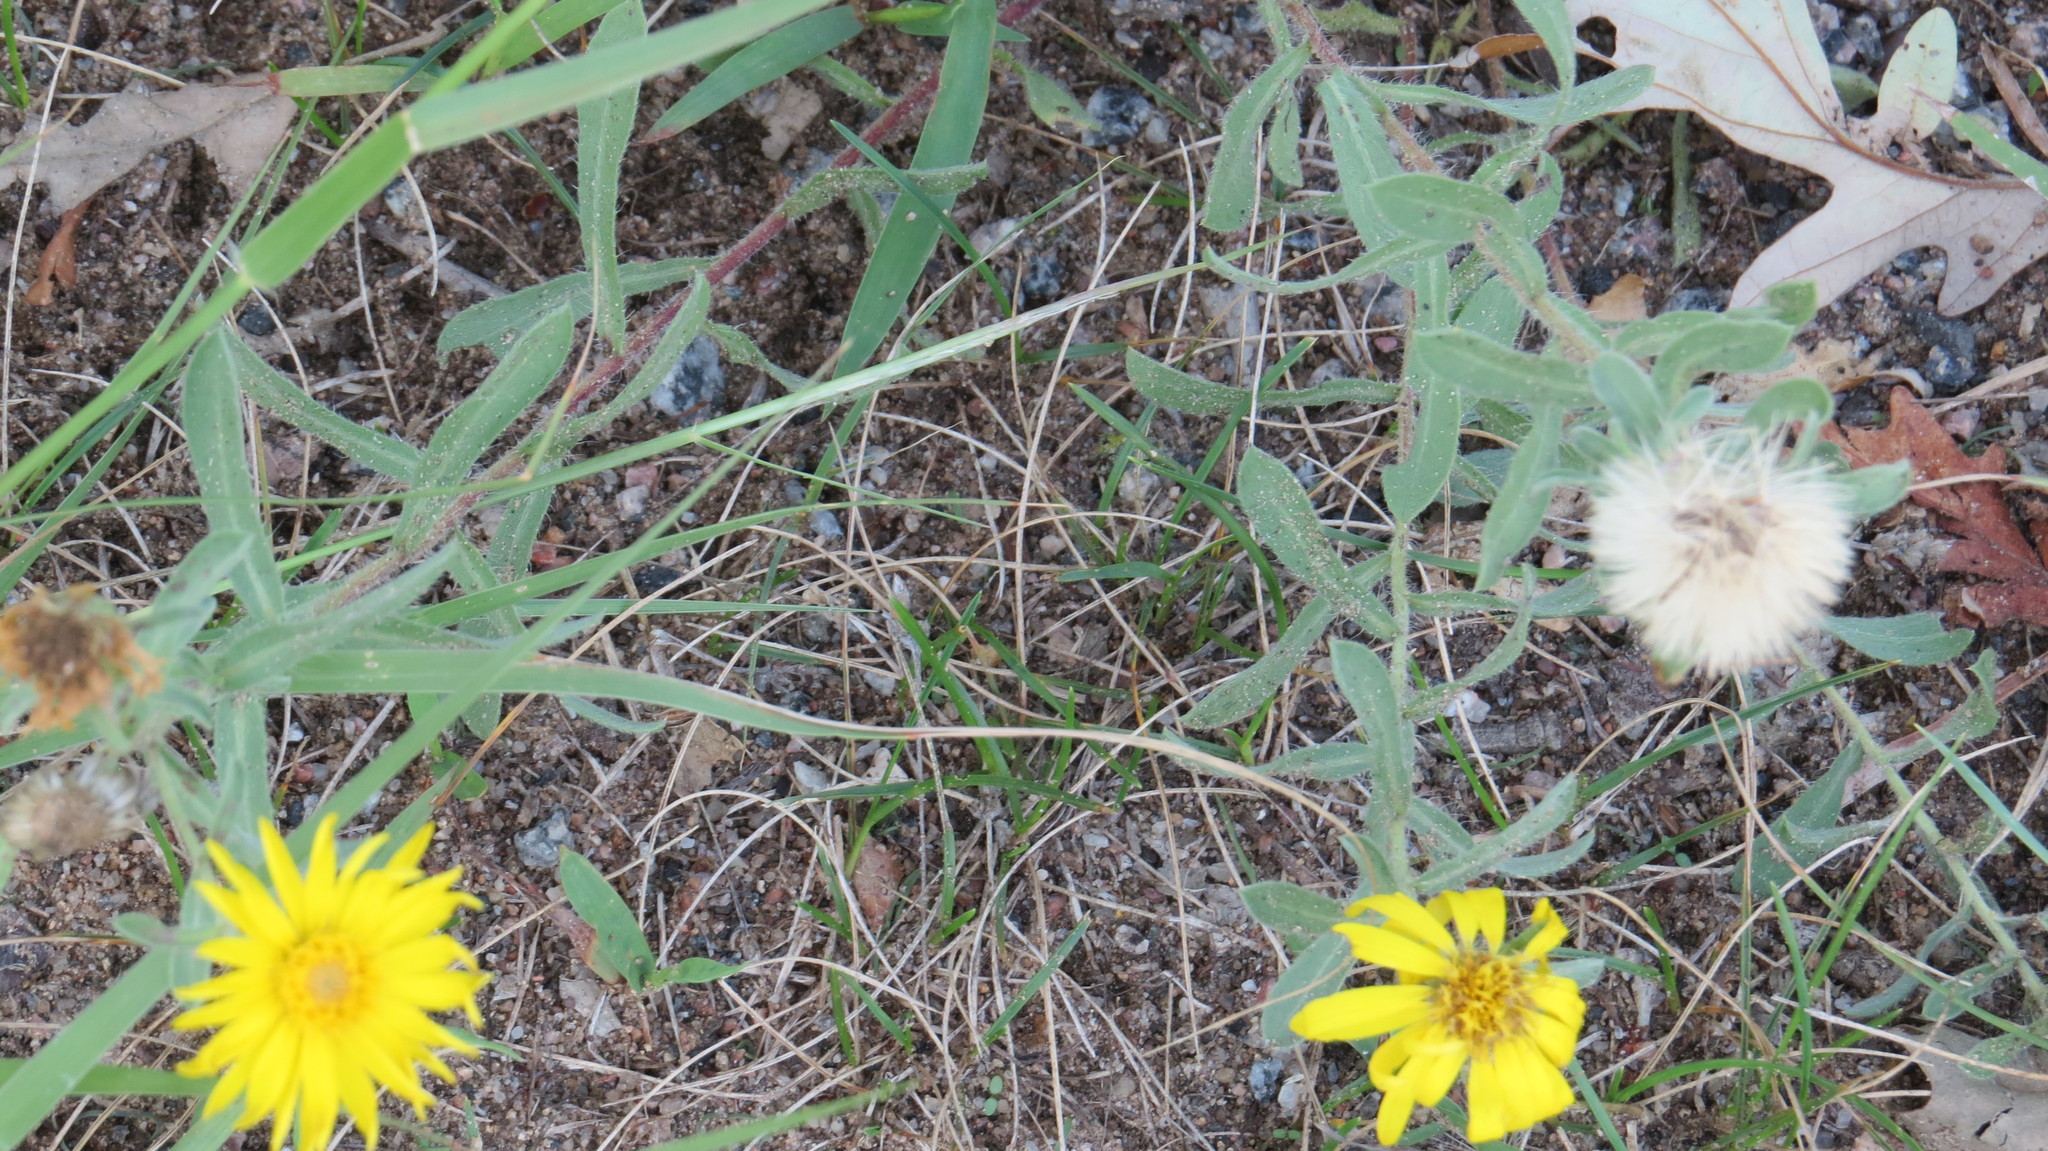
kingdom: Plantae
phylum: Tracheophyta
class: Magnoliopsida
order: Asterales
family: Asteraceae
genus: Heterotheca
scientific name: Heterotheca villosa
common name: Hairy false goldenaster
